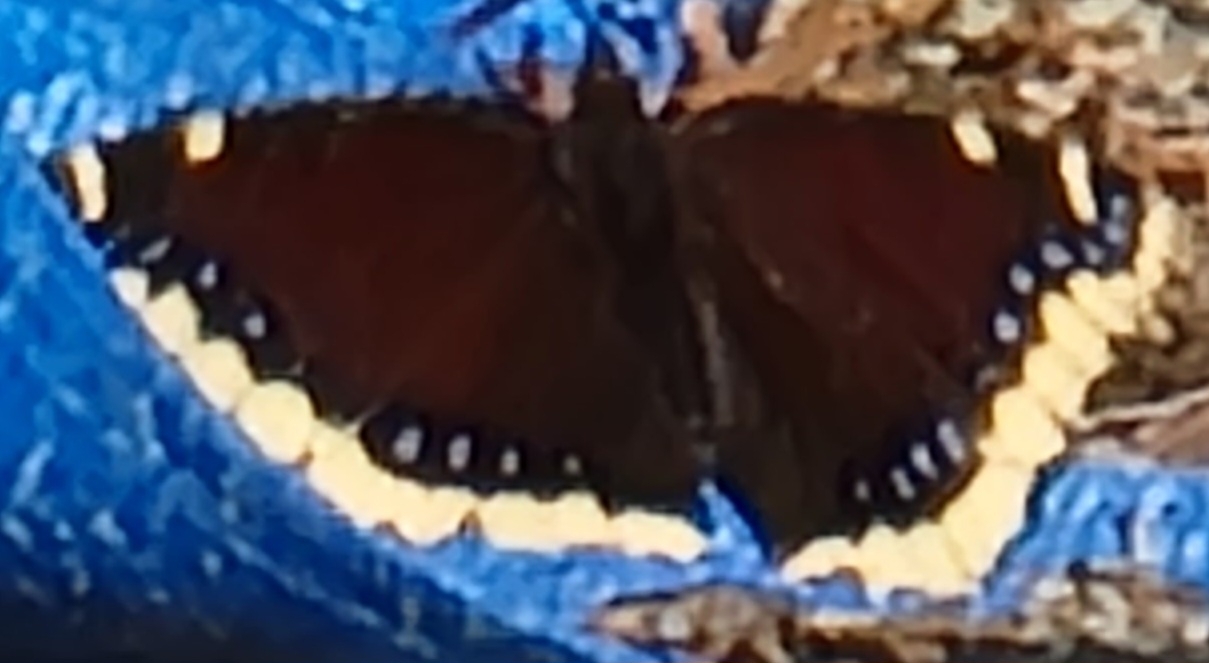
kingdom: Animalia
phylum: Arthropoda
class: Insecta
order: Lepidoptera
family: Nymphalidae
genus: Nymphalis
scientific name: Nymphalis antiopa
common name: Camberwell beauty
